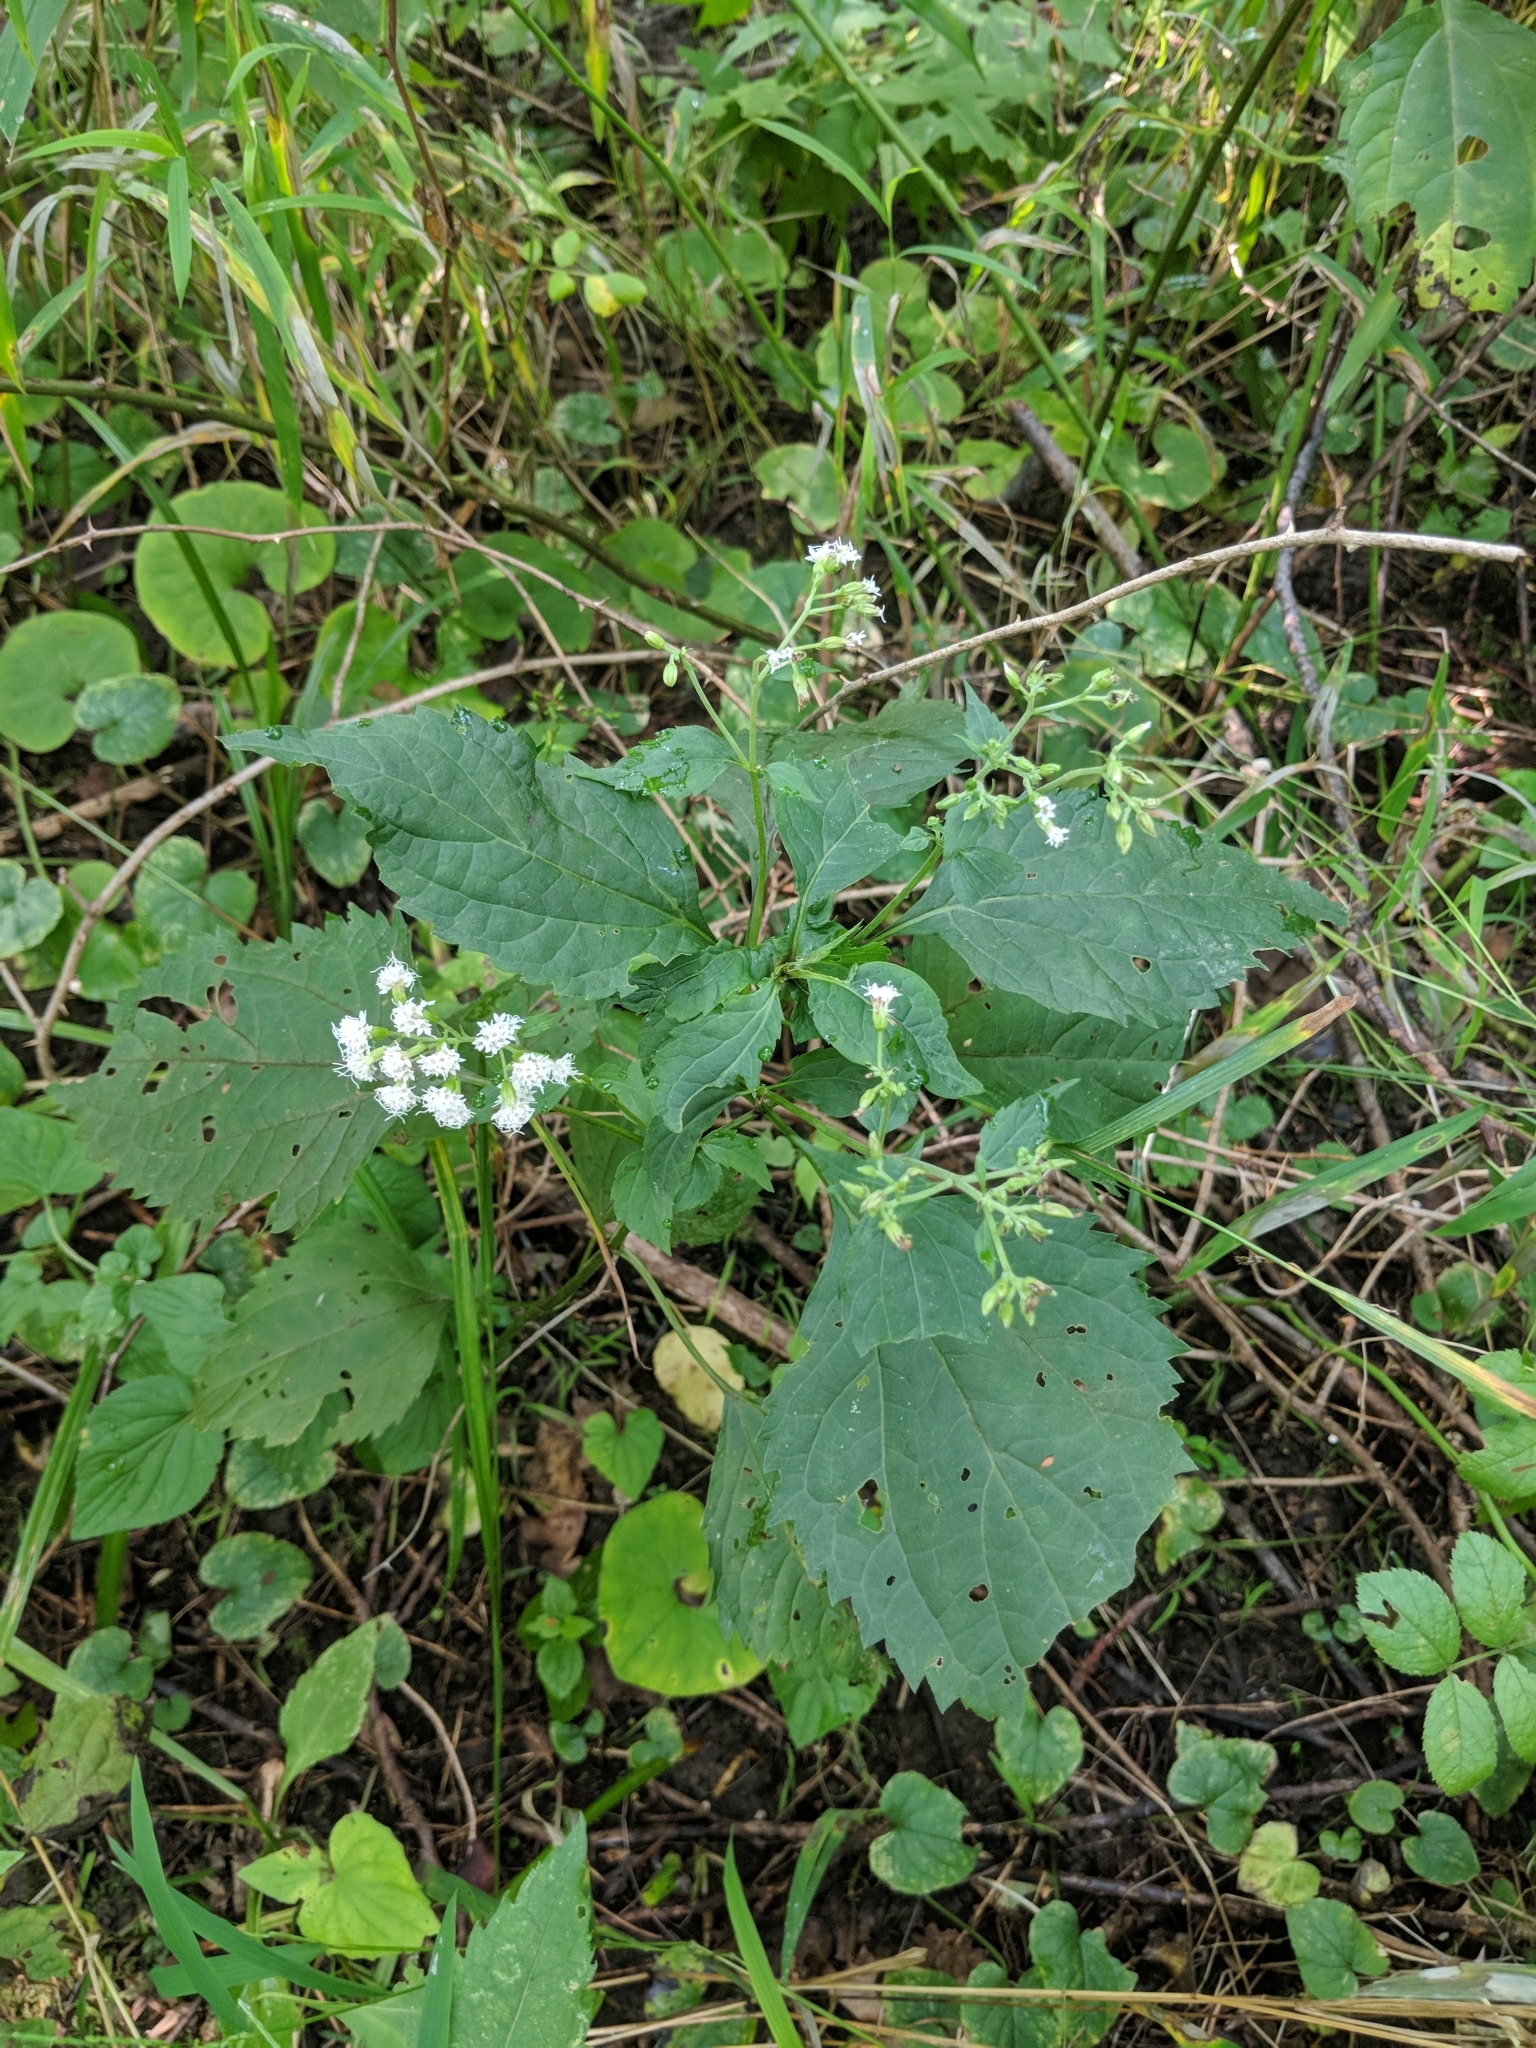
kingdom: Plantae
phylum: Tracheophyta
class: Magnoliopsida
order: Asterales
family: Asteraceae
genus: Ageratina
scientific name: Ageratina altissima
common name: White snakeroot
